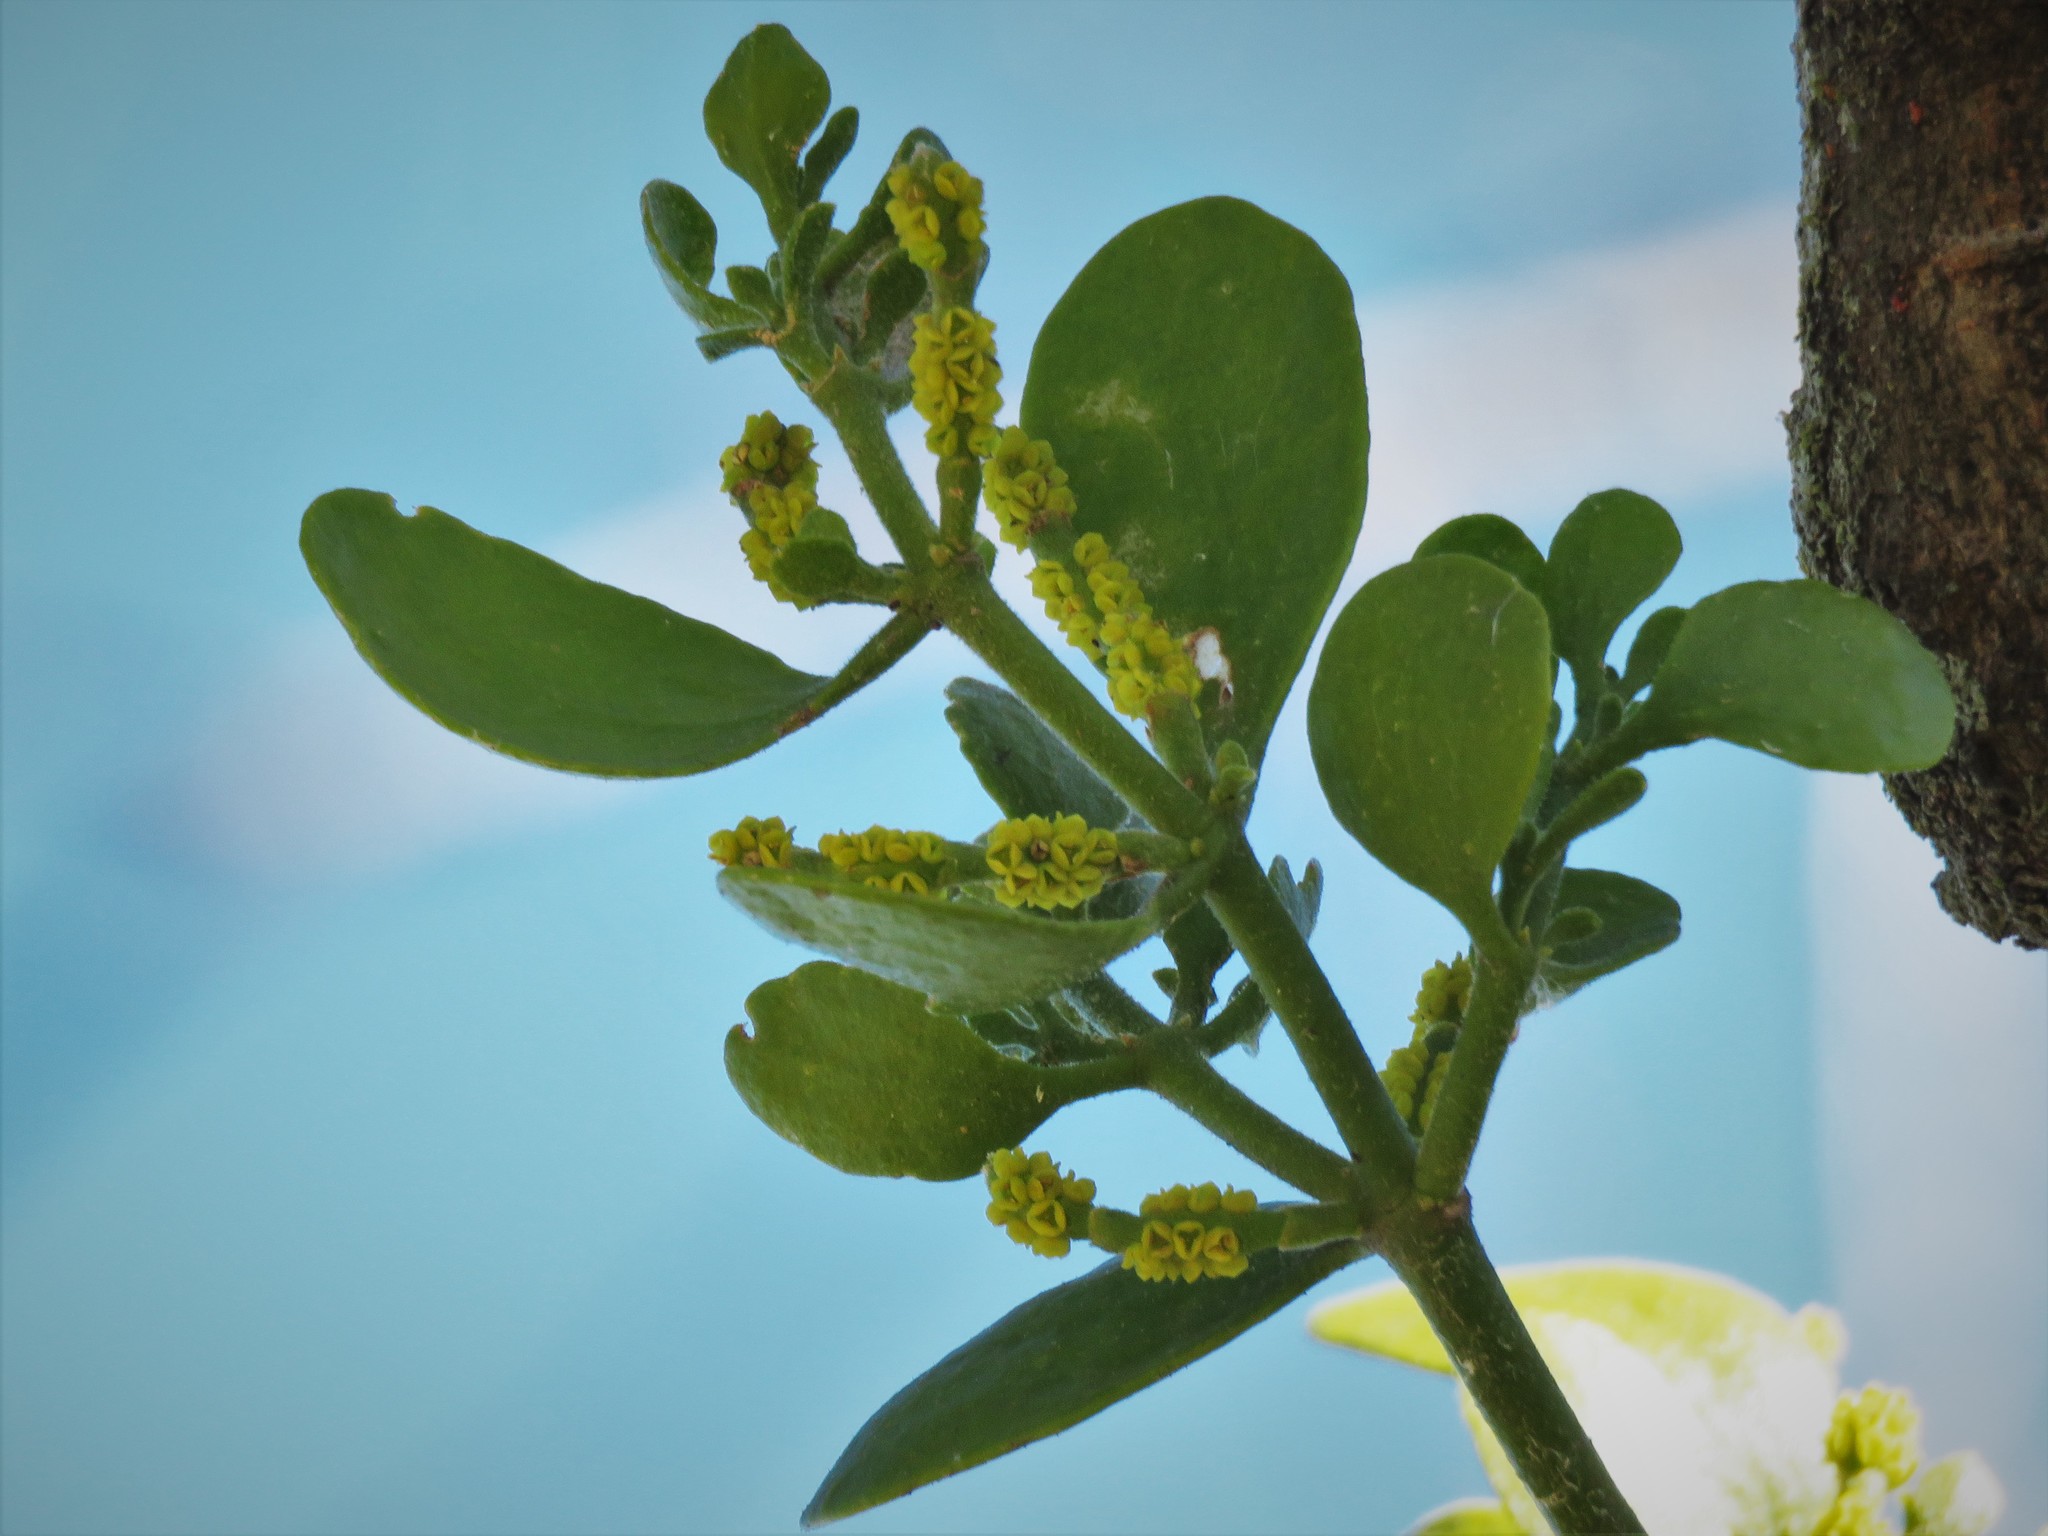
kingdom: Plantae
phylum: Tracheophyta
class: Magnoliopsida
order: Santalales
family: Viscaceae
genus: Phoradendron
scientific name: Phoradendron leucarpum
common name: Pacific mistletoe
